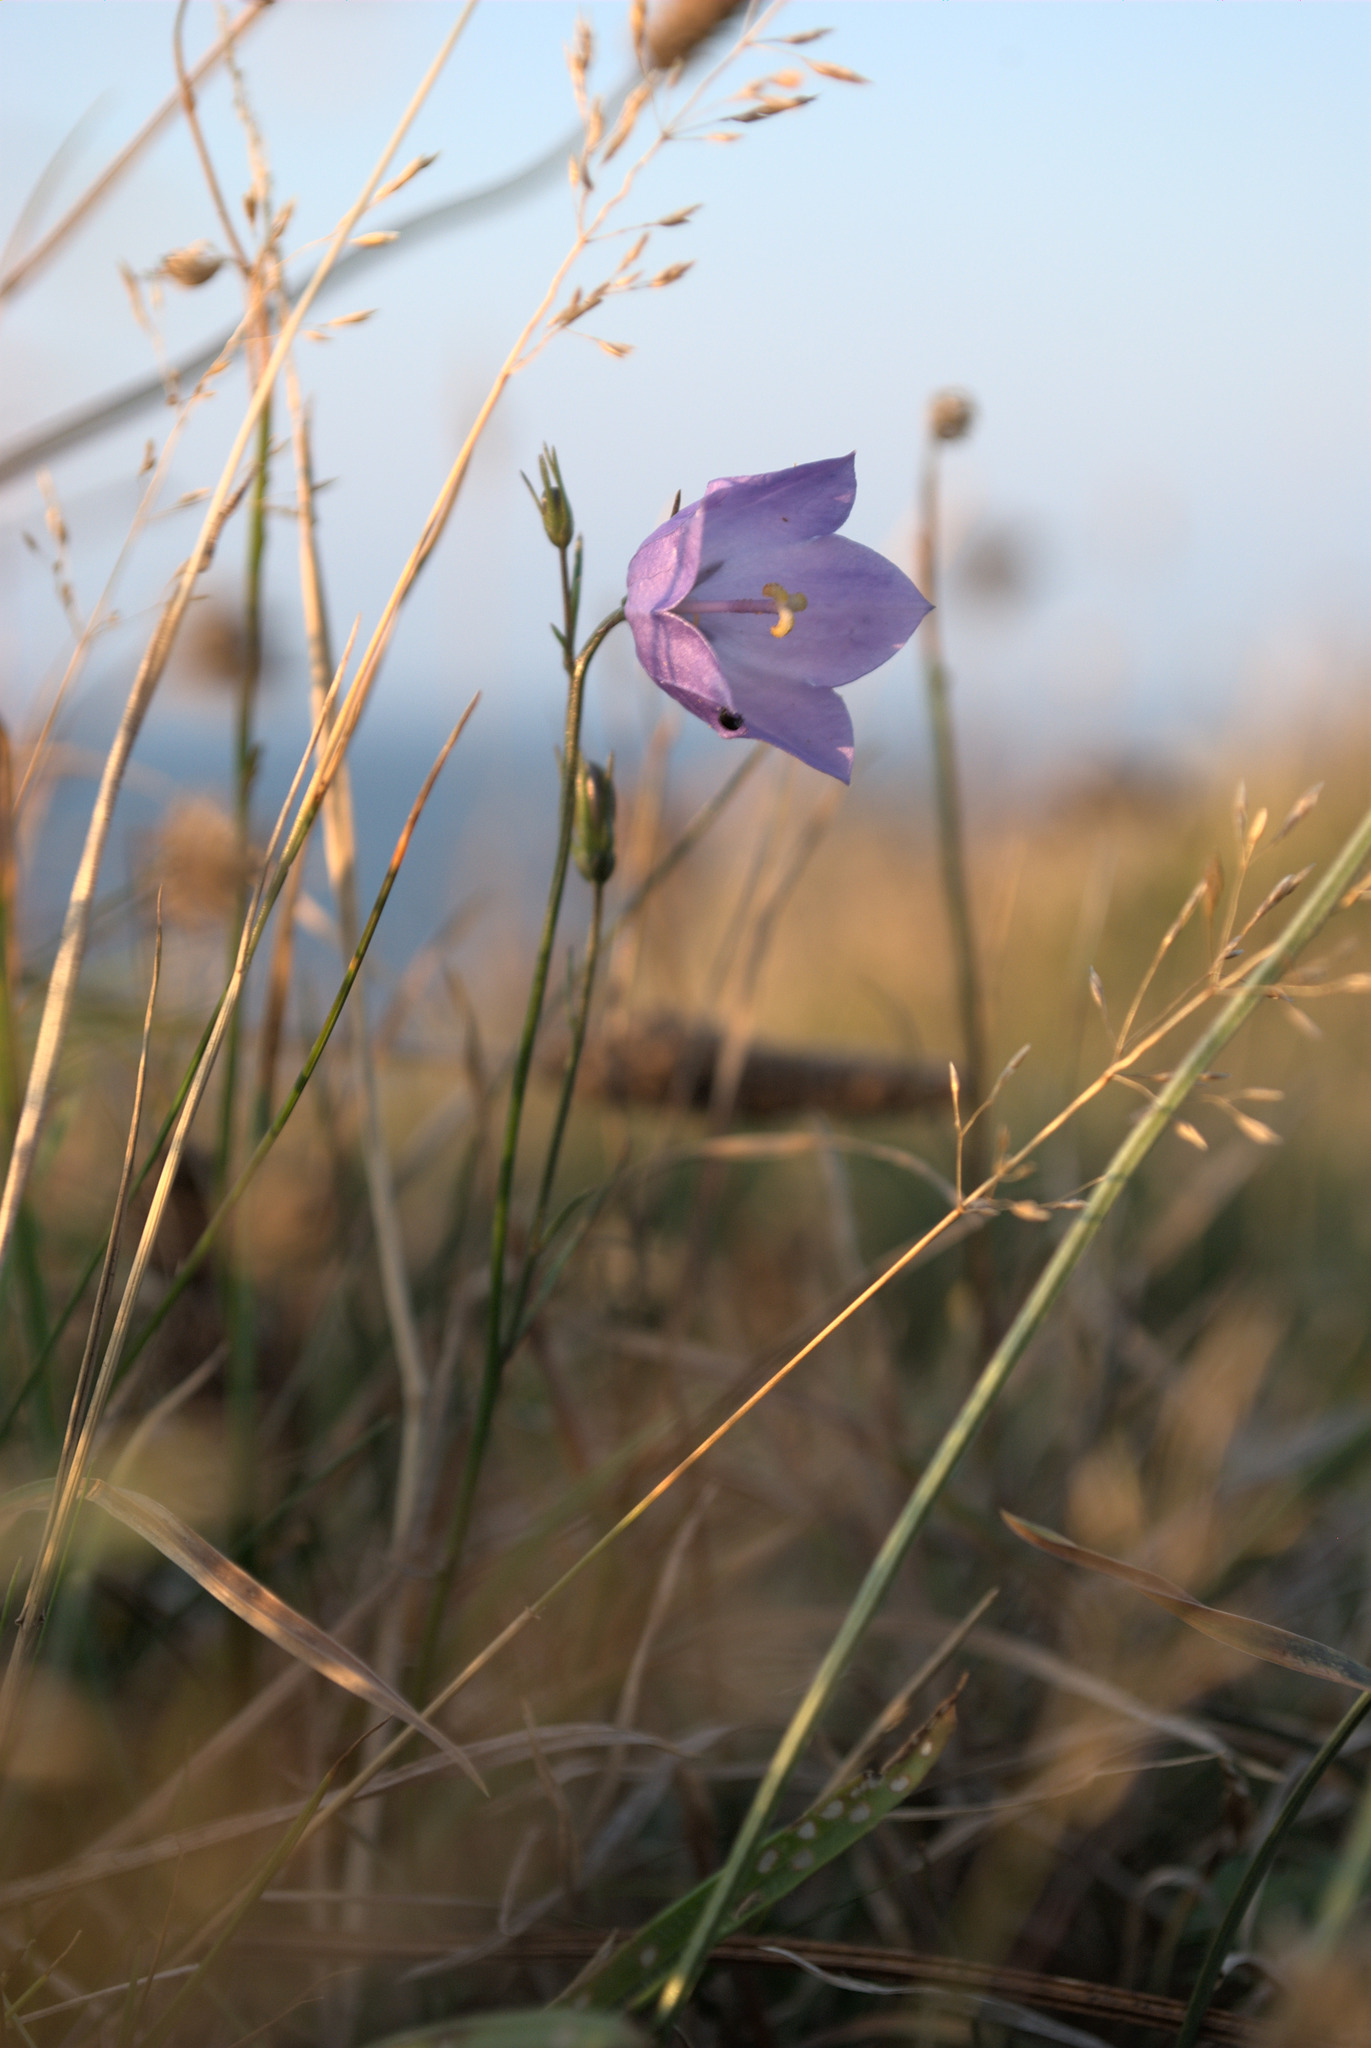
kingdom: Plantae
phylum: Tracheophyta
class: Magnoliopsida
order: Asterales
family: Campanulaceae
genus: Campanula
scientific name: Campanula rotundifolia
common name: Harebell
